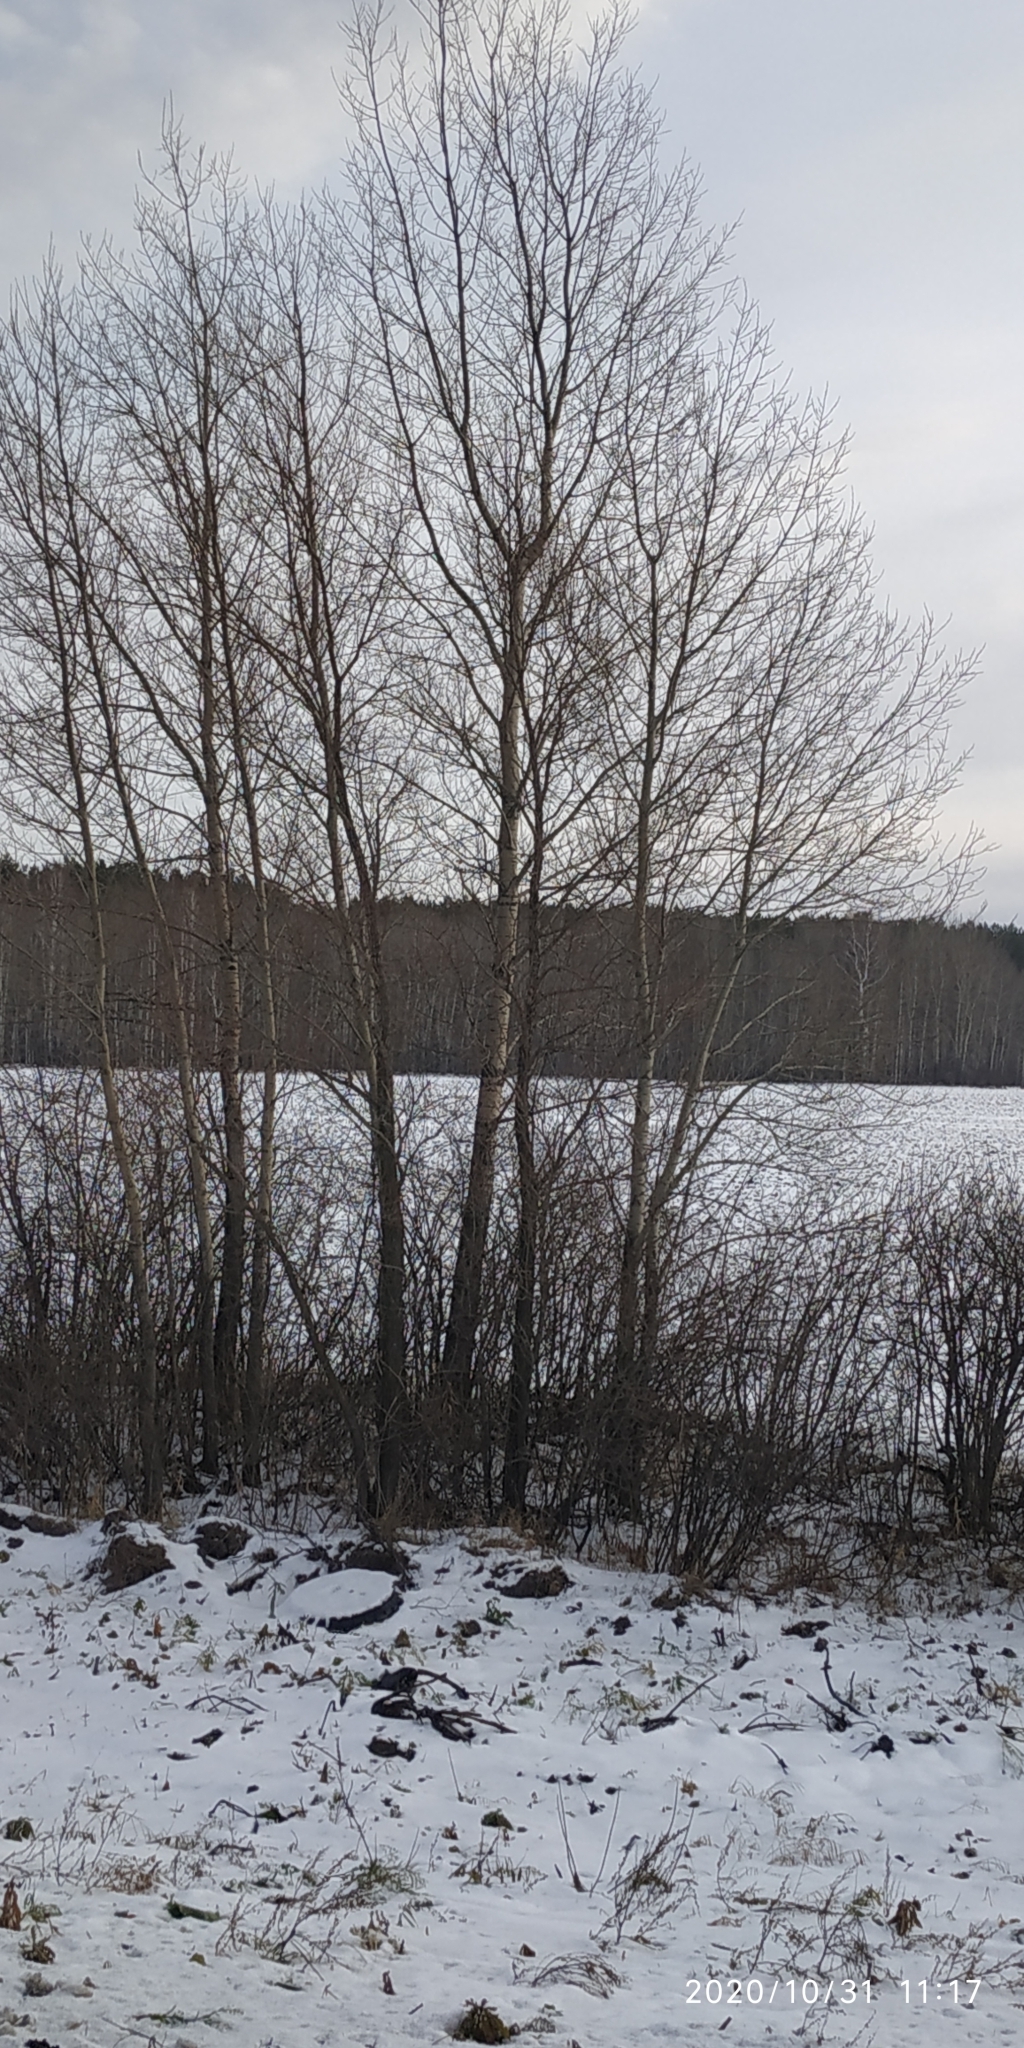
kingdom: Plantae
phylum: Tracheophyta
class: Magnoliopsida
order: Malpighiales
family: Salicaceae
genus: Populus
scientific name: Populus tremula
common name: European aspen
